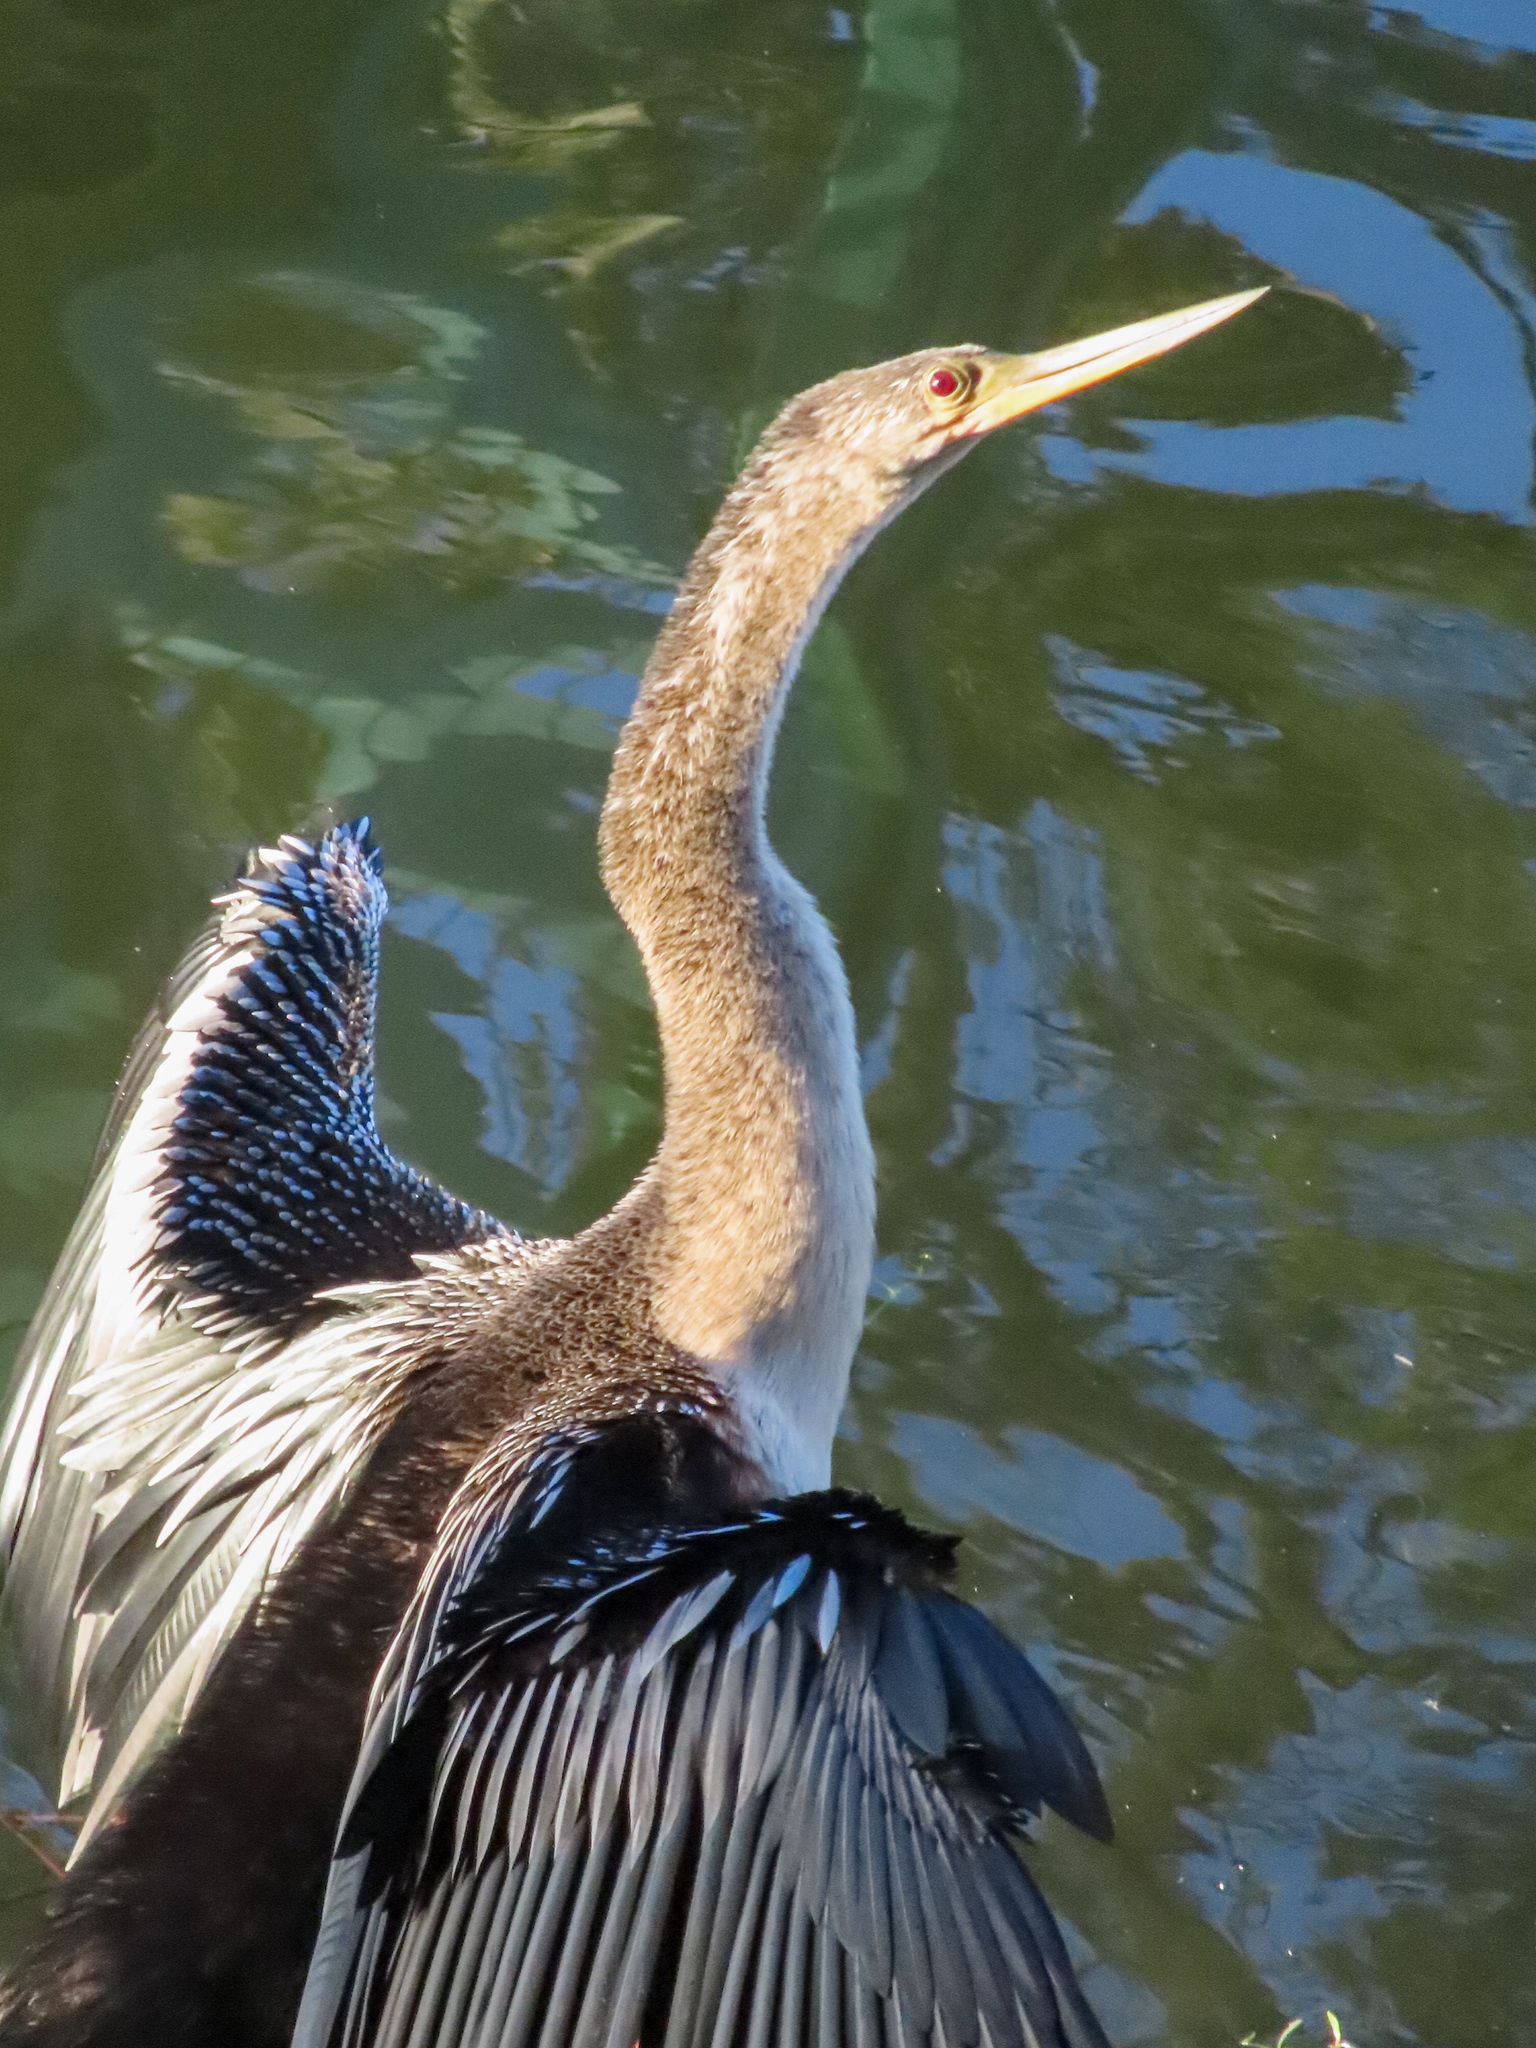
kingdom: Animalia
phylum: Chordata
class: Aves
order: Suliformes
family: Anhingidae
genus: Anhinga
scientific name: Anhinga anhinga
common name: Anhinga
